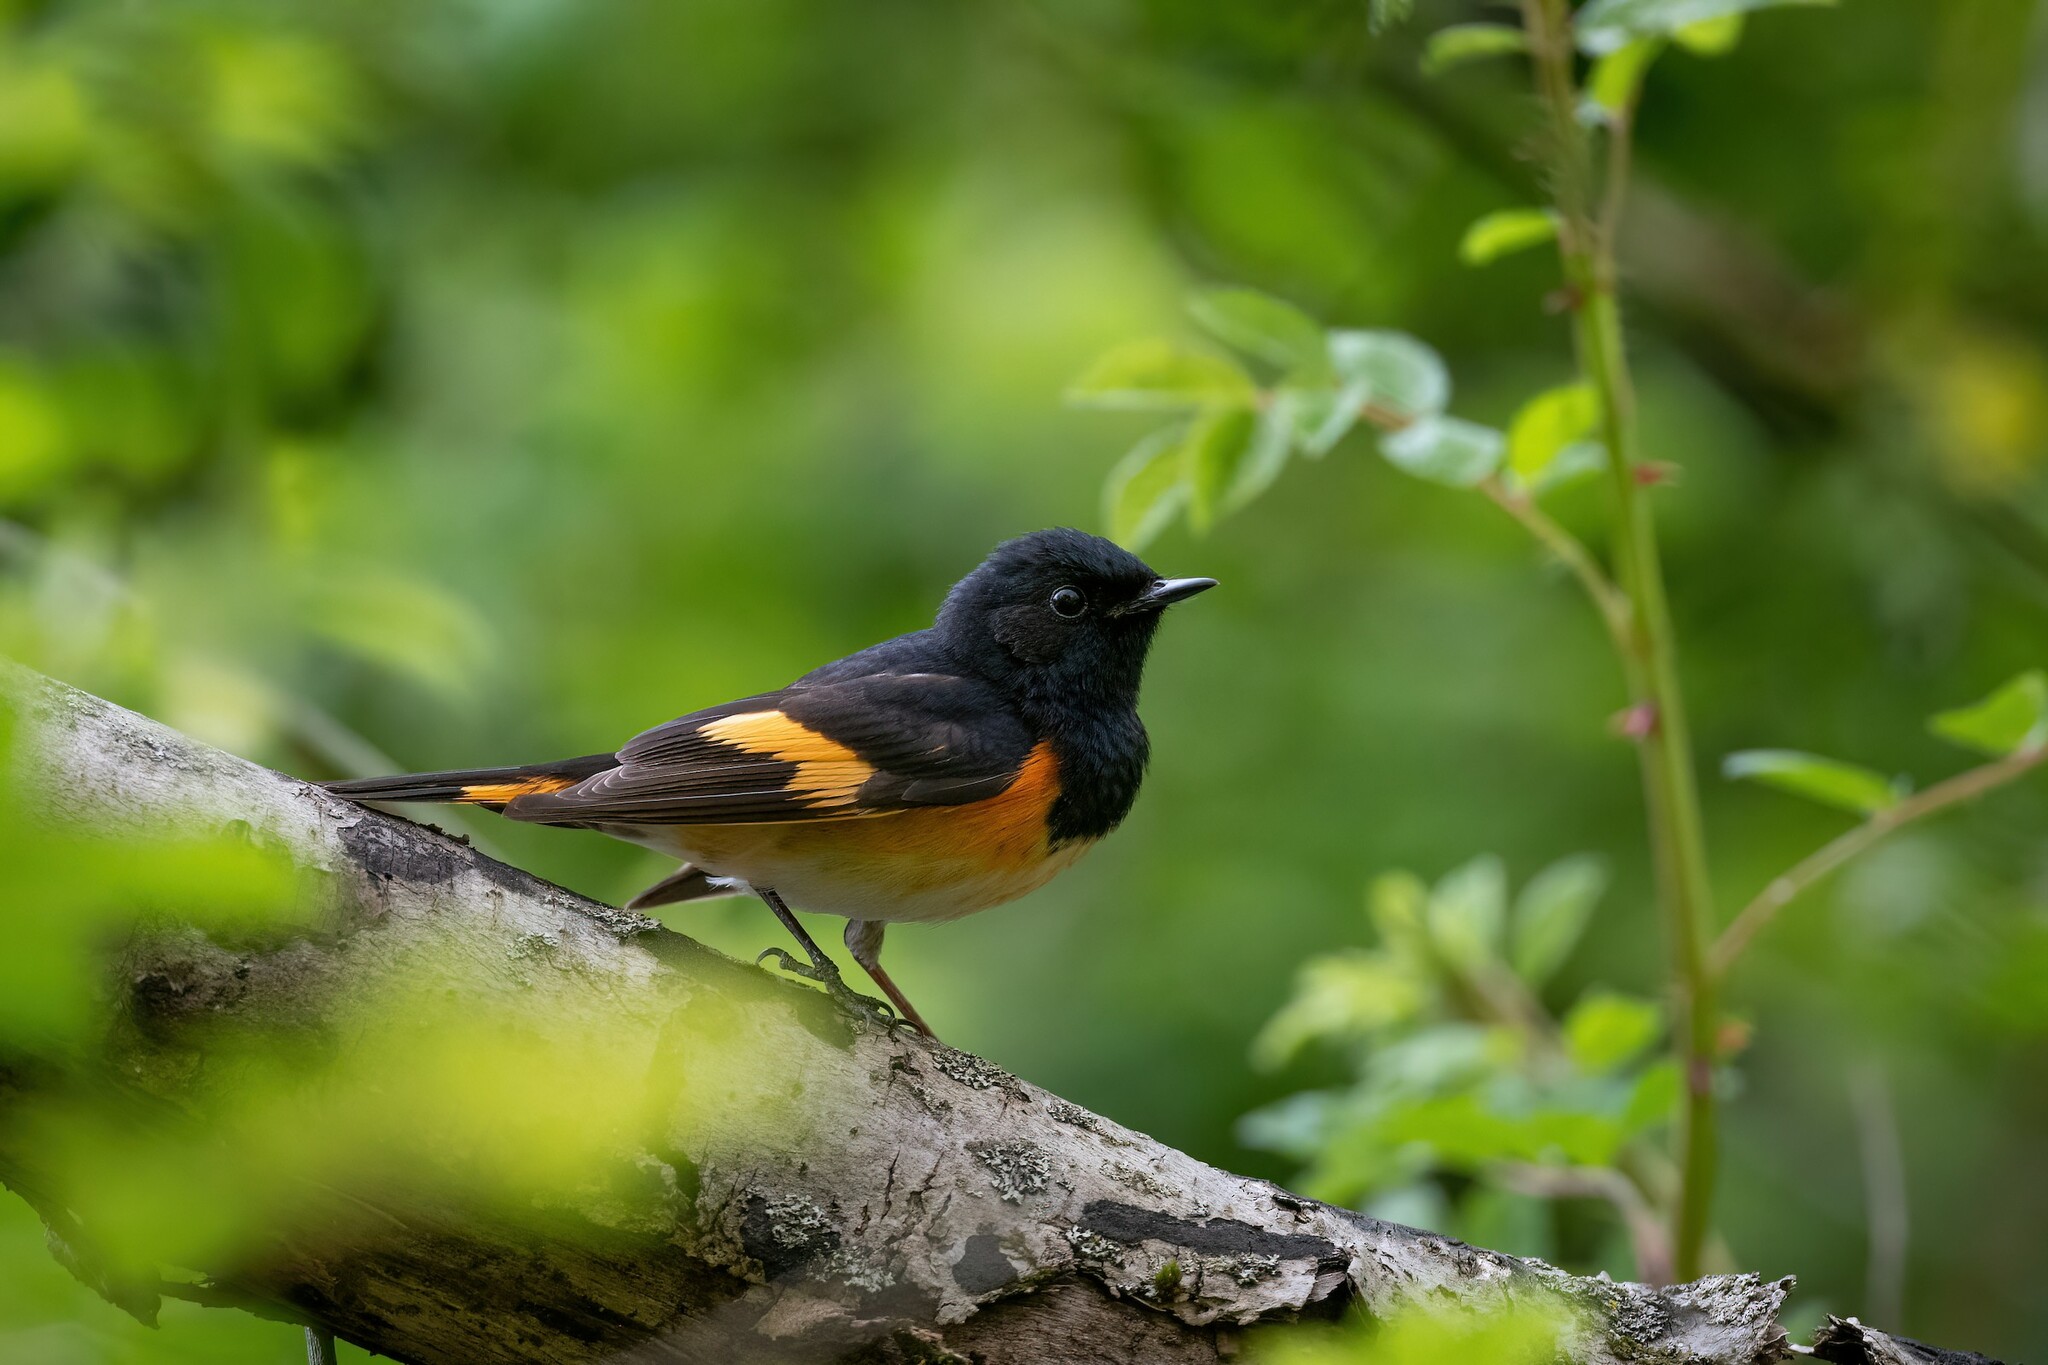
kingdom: Animalia
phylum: Chordata
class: Aves
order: Passeriformes
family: Parulidae
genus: Setophaga
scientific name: Setophaga ruticilla
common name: American redstart
